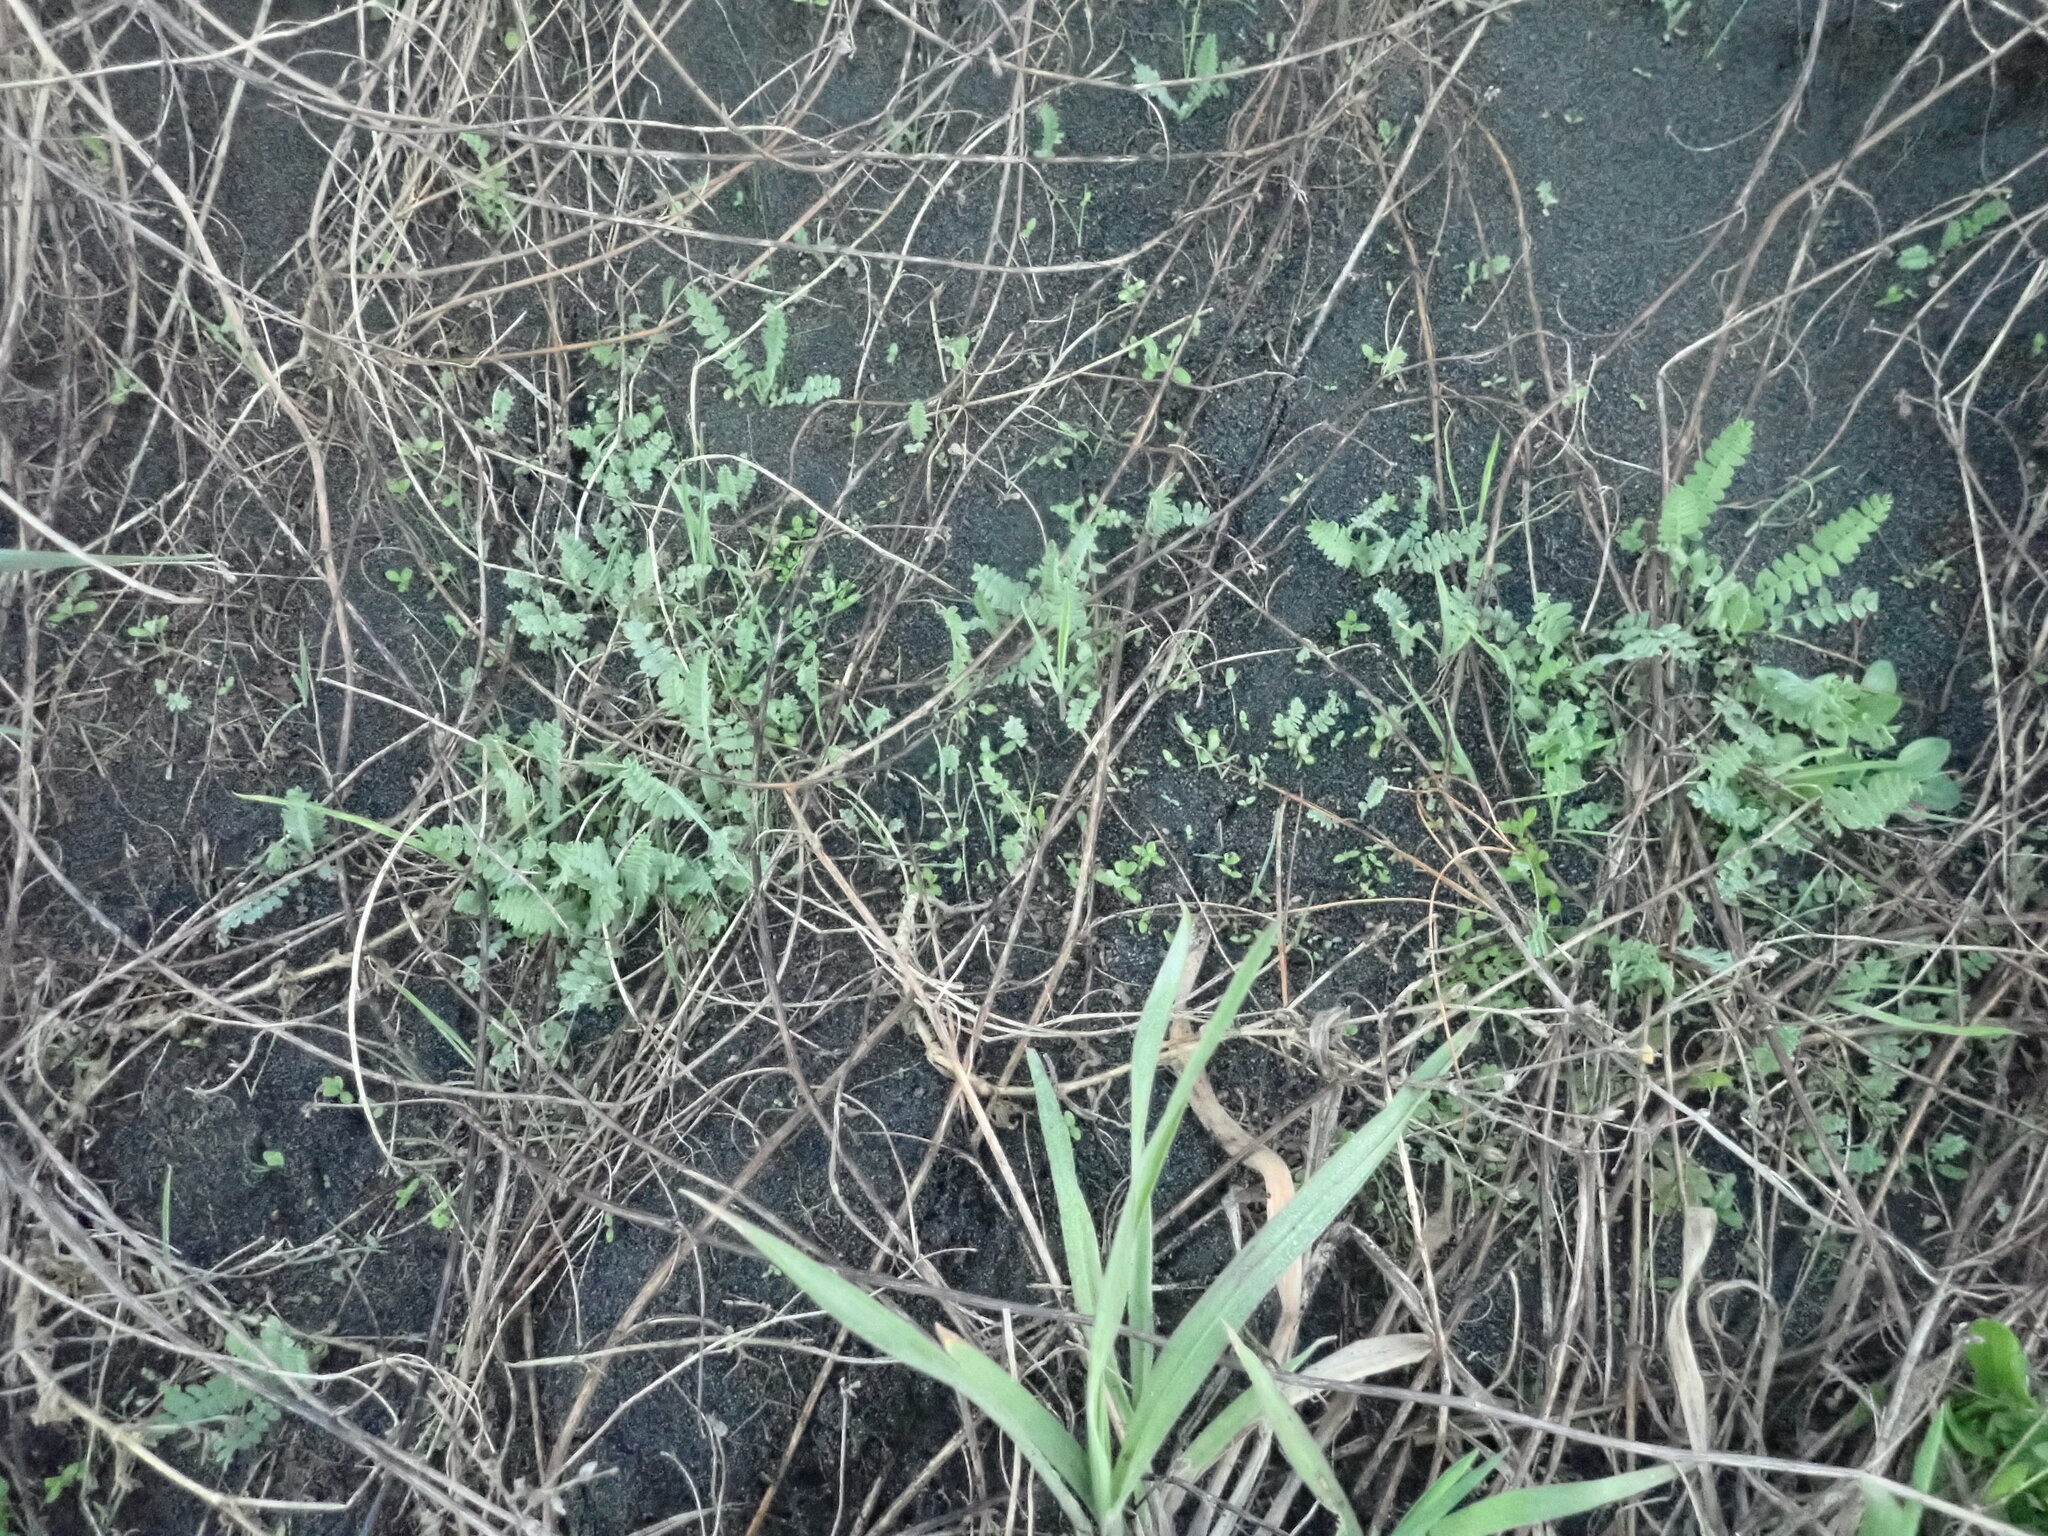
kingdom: Plantae
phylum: Tracheophyta
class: Magnoliopsida
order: Fabales
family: Fabaceae
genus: Ornithopus
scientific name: Ornithopus compressus
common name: Yellow serradella
